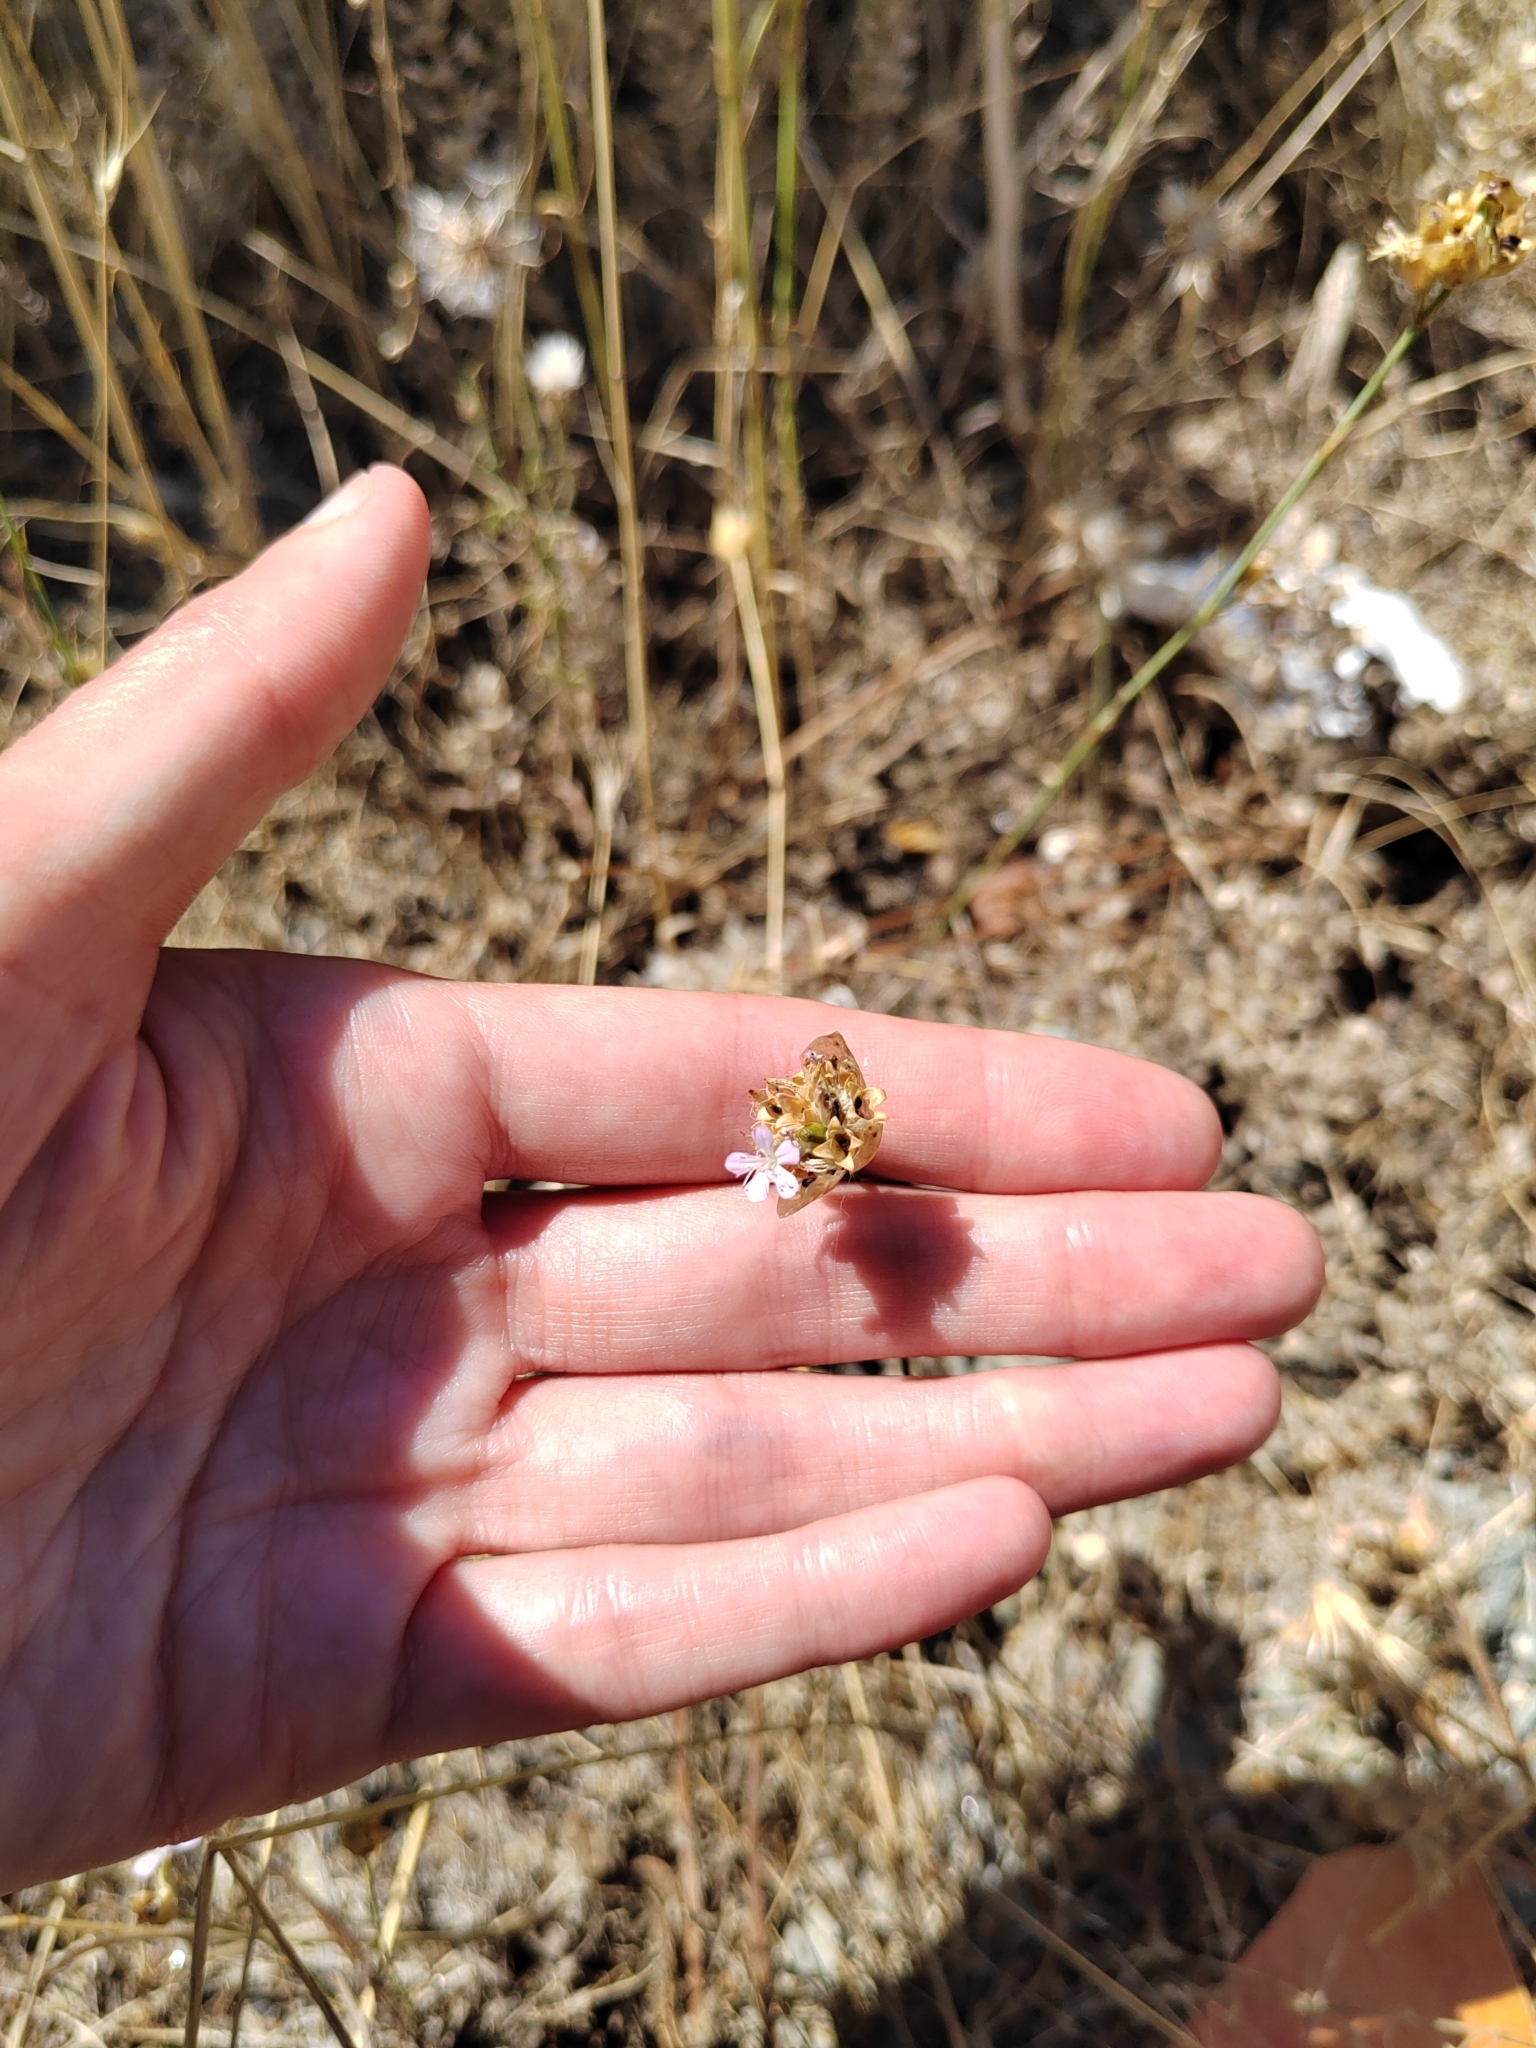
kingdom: Plantae
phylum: Tracheophyta
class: Magnoliopsida
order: Caryophyllales
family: Caryophyllaceae
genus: Petrorhagia
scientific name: Petrorhagia prolifera
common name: Proliferous pink
